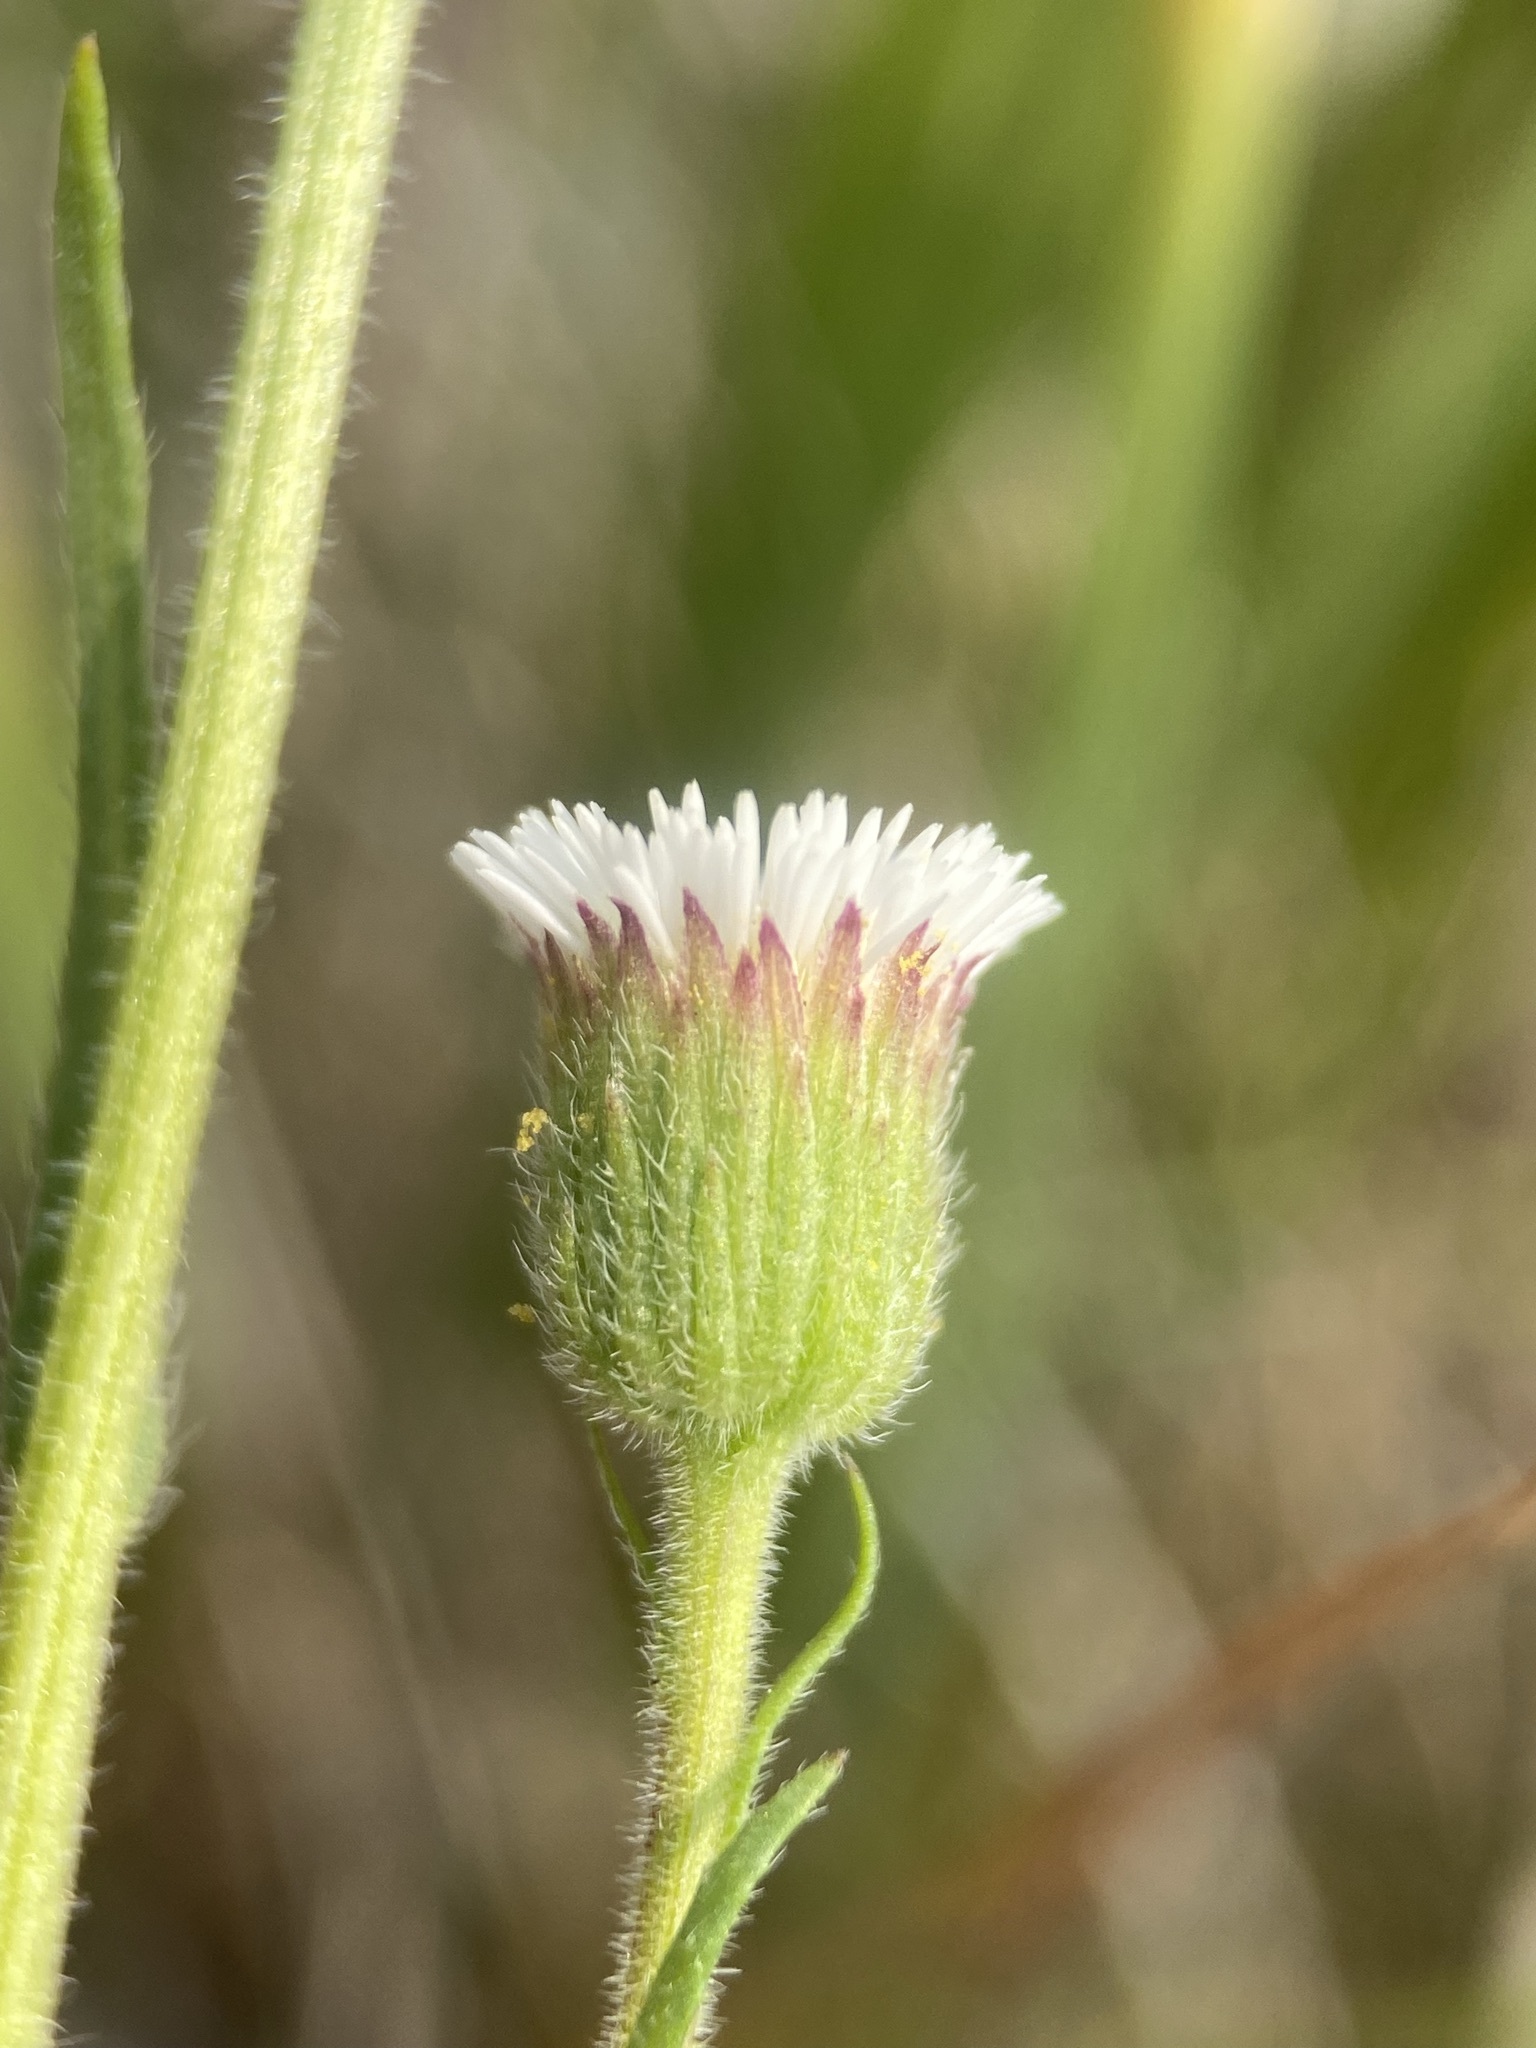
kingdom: Plantae
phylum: Tracheophyta
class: Magnoliopsida
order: Asterales
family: Asteraceae
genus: Erigeron
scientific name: Erigeron lonchophyllus
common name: Short-ray fleabane
